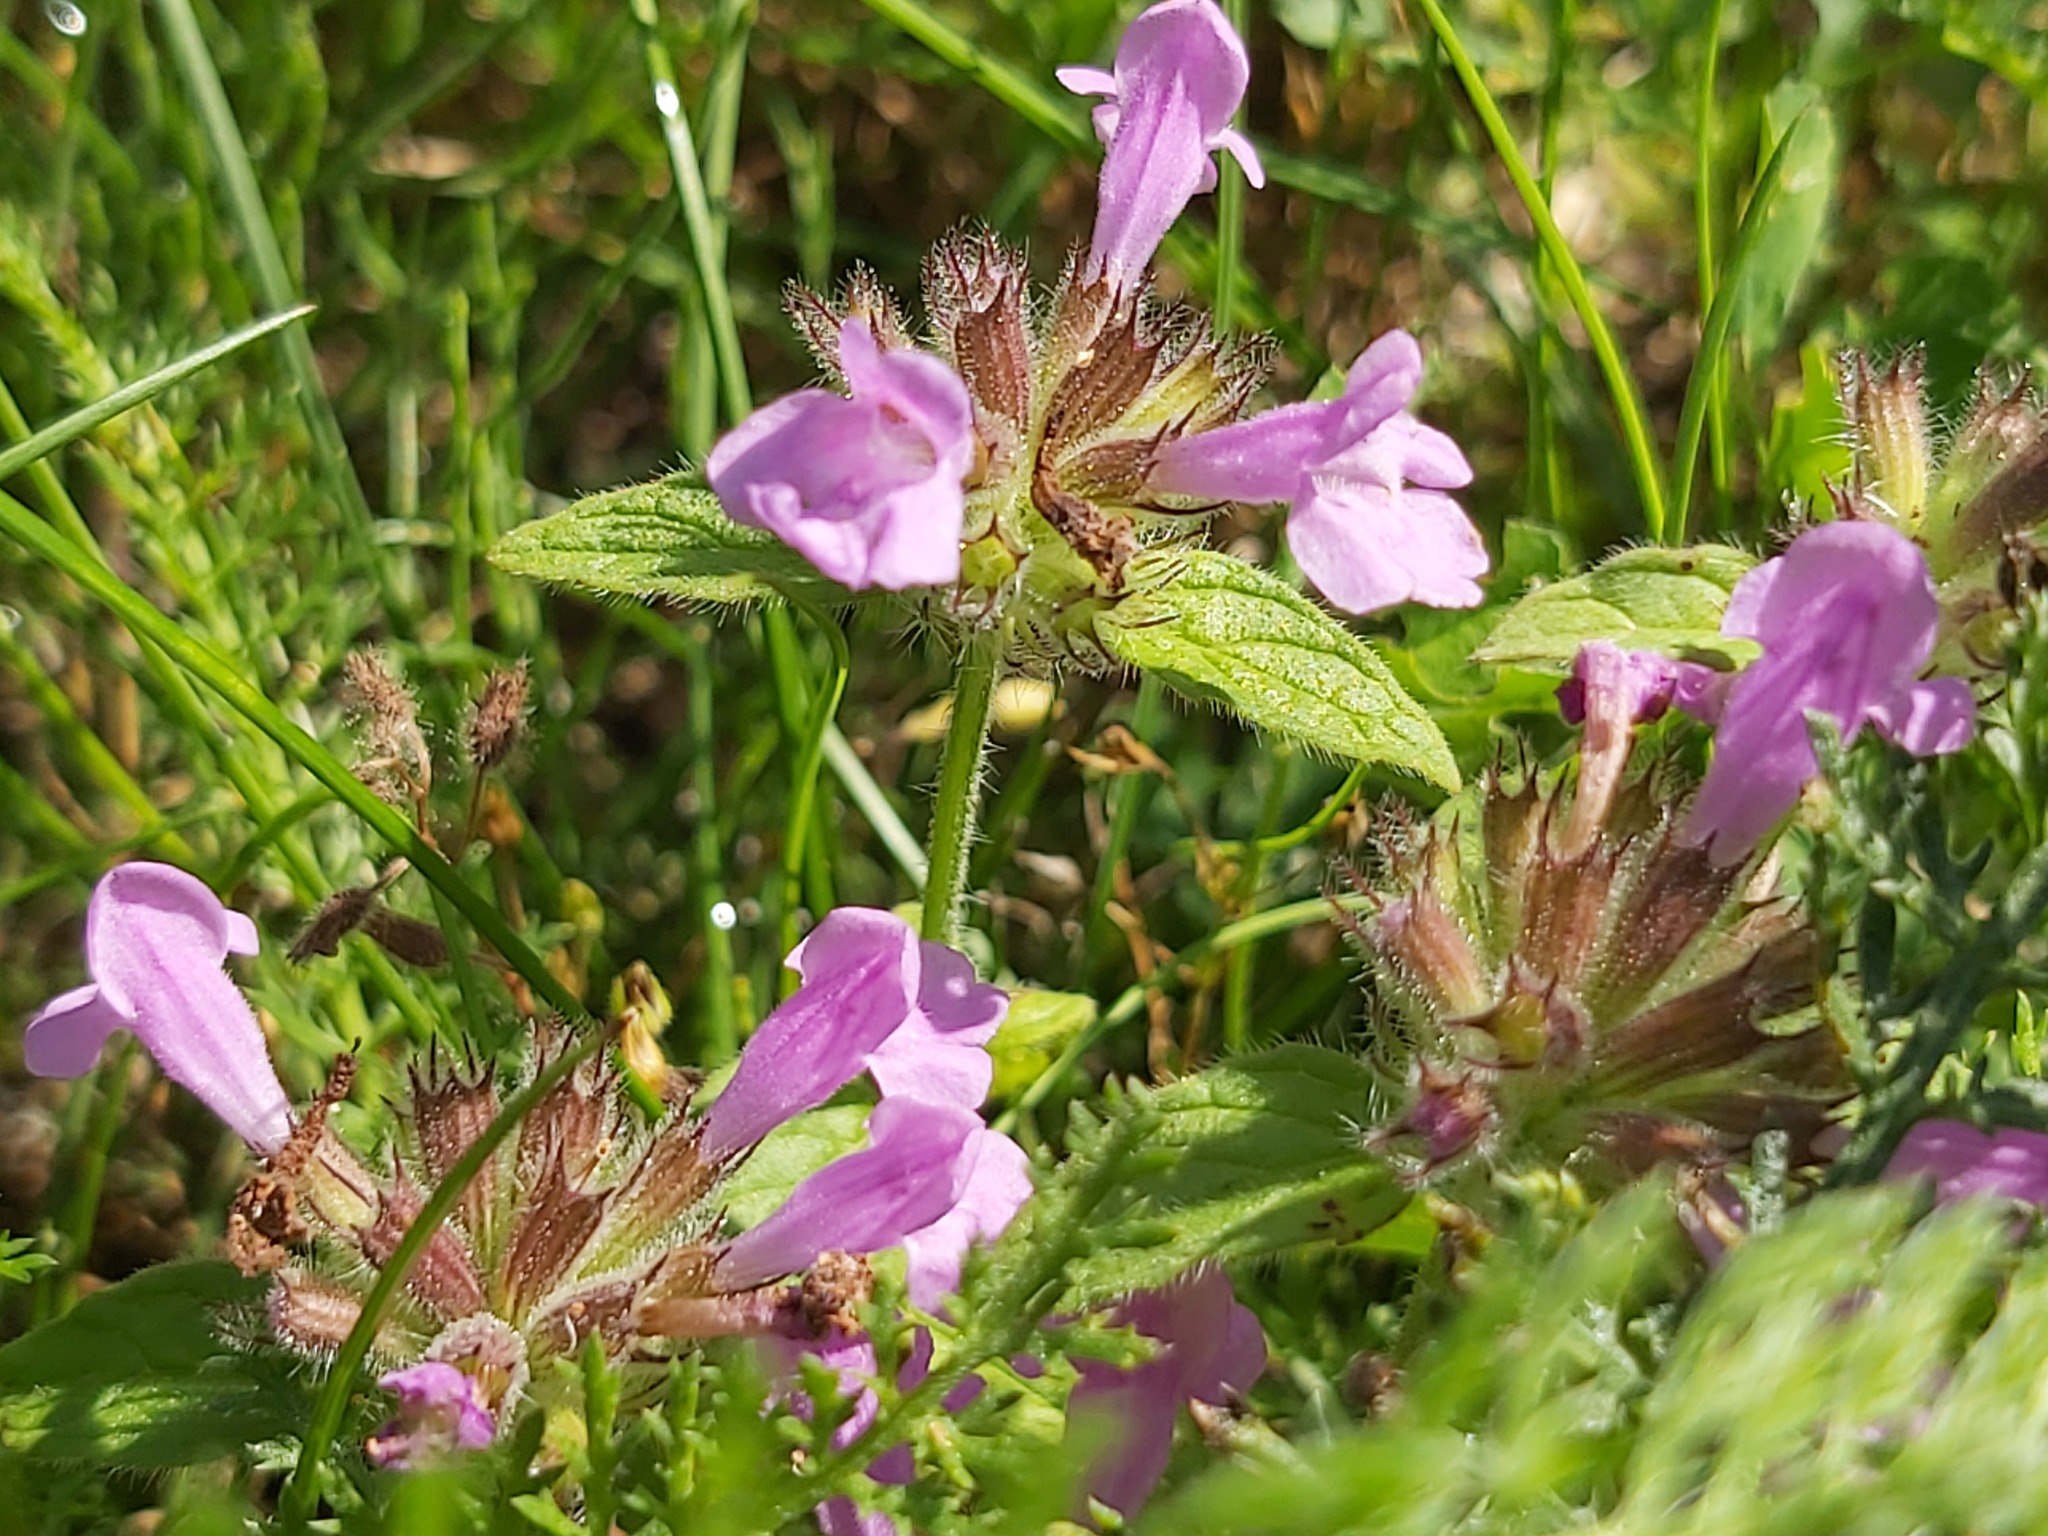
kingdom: Plantae
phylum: Tracheophyta
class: Magnoliopsida
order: Lamiales
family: Lamiaceae
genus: Clinopodium
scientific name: Clinopodium vulgare
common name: Wild basil
